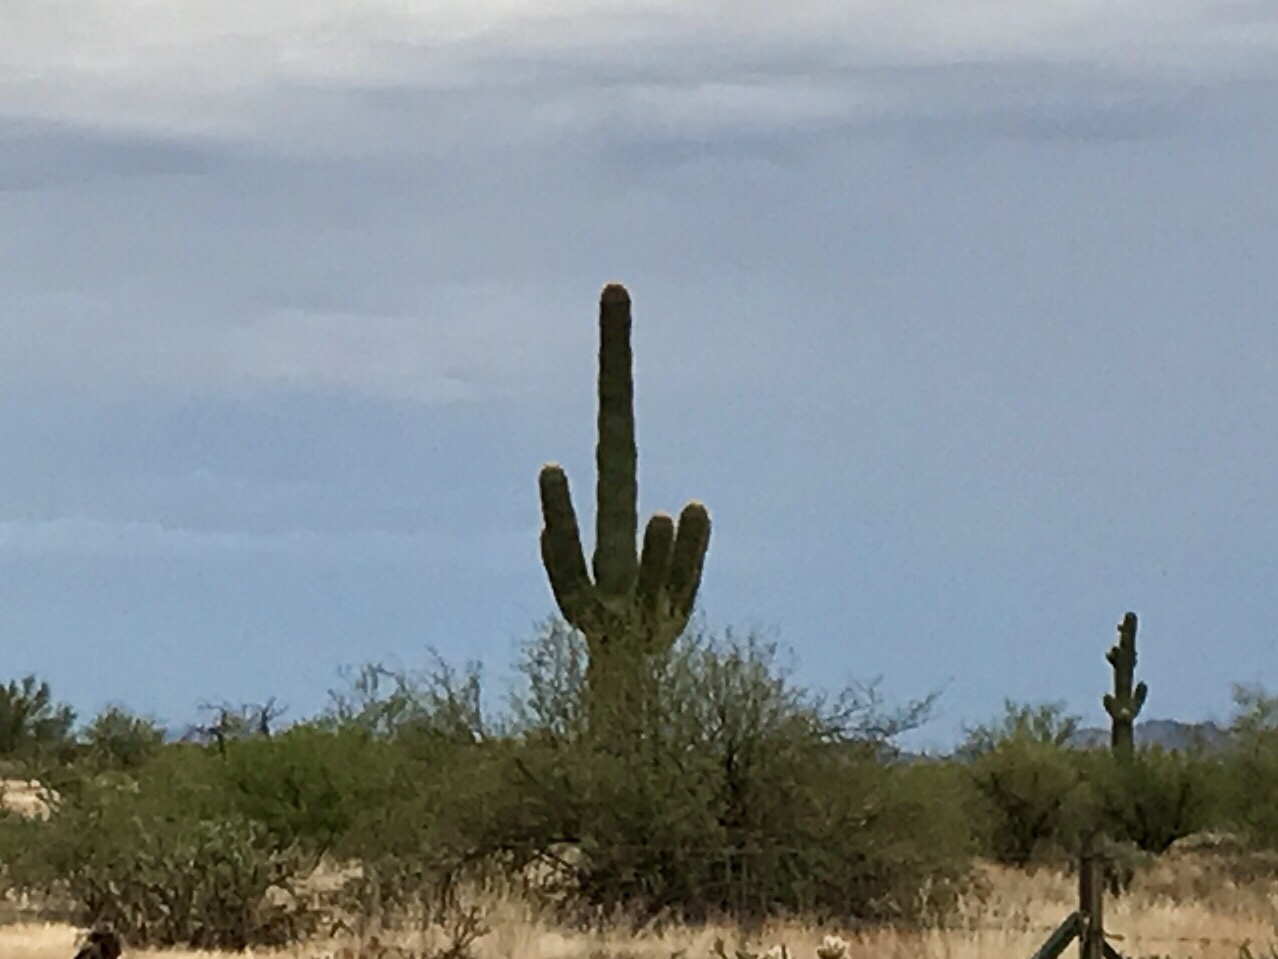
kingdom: Plantae
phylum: Tracheophyta
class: Magnoliopsida
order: Caryophyllales
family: Cactaceae
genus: Carnegiea
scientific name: Carnegiea gigantea
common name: Saguaro
